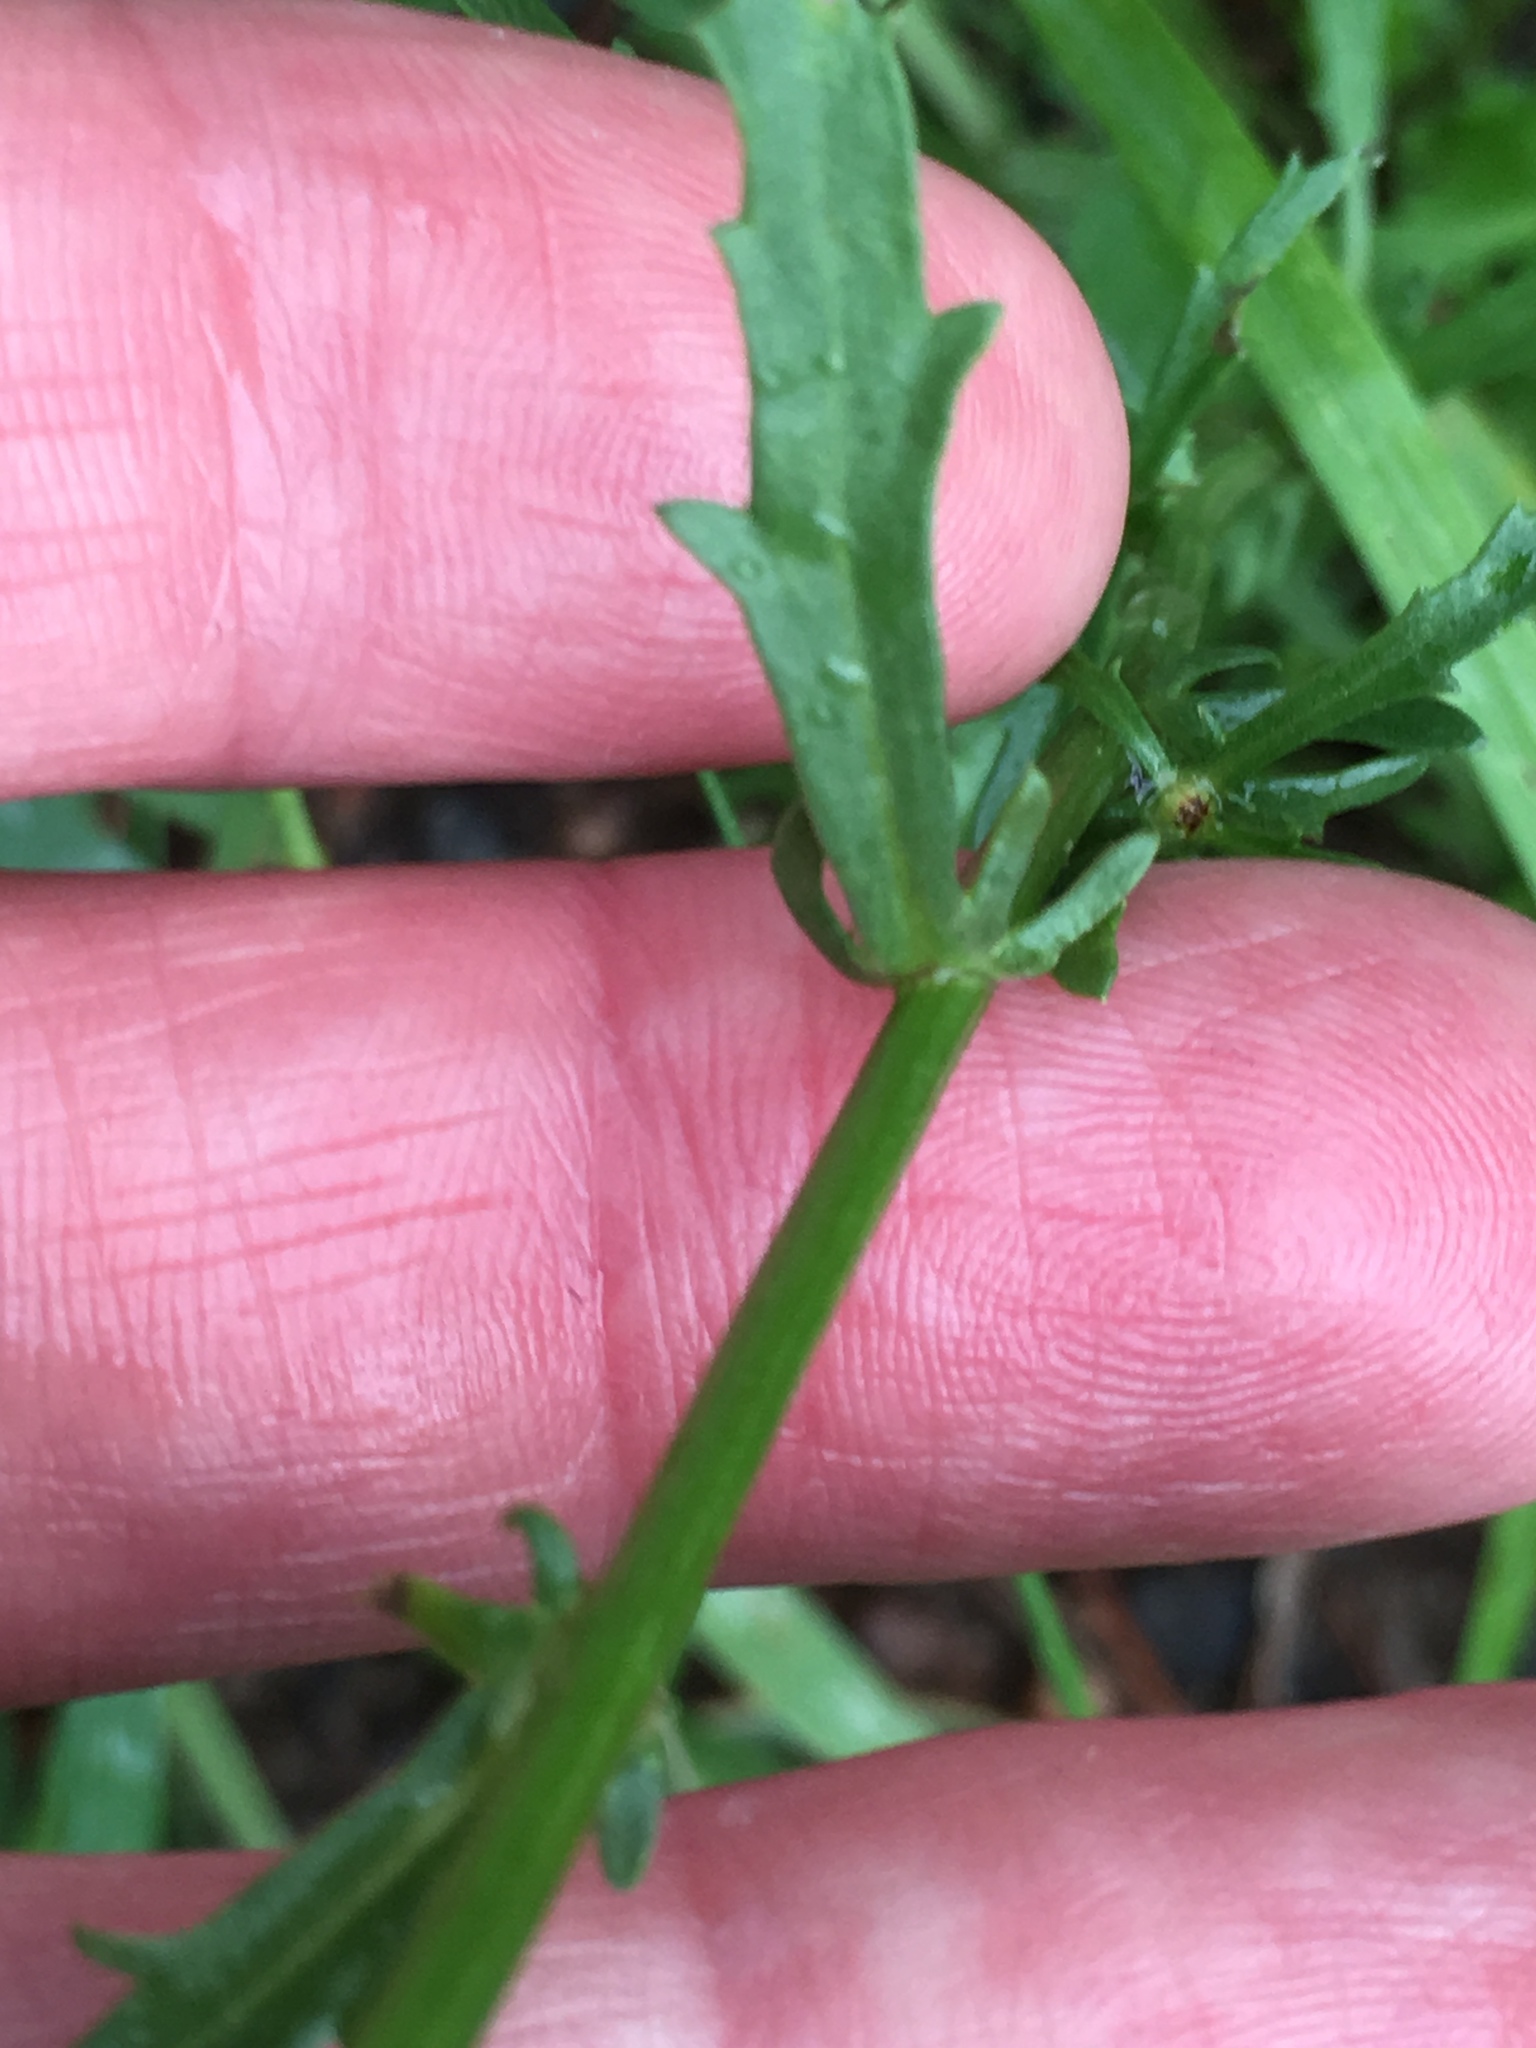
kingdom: Plantae
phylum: Tracheophyta
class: Magnoliopsida
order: Asterales
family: Asteraceae
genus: Leucanthemum
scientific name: Leucanthemum vulgare
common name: Oxeye daisy
